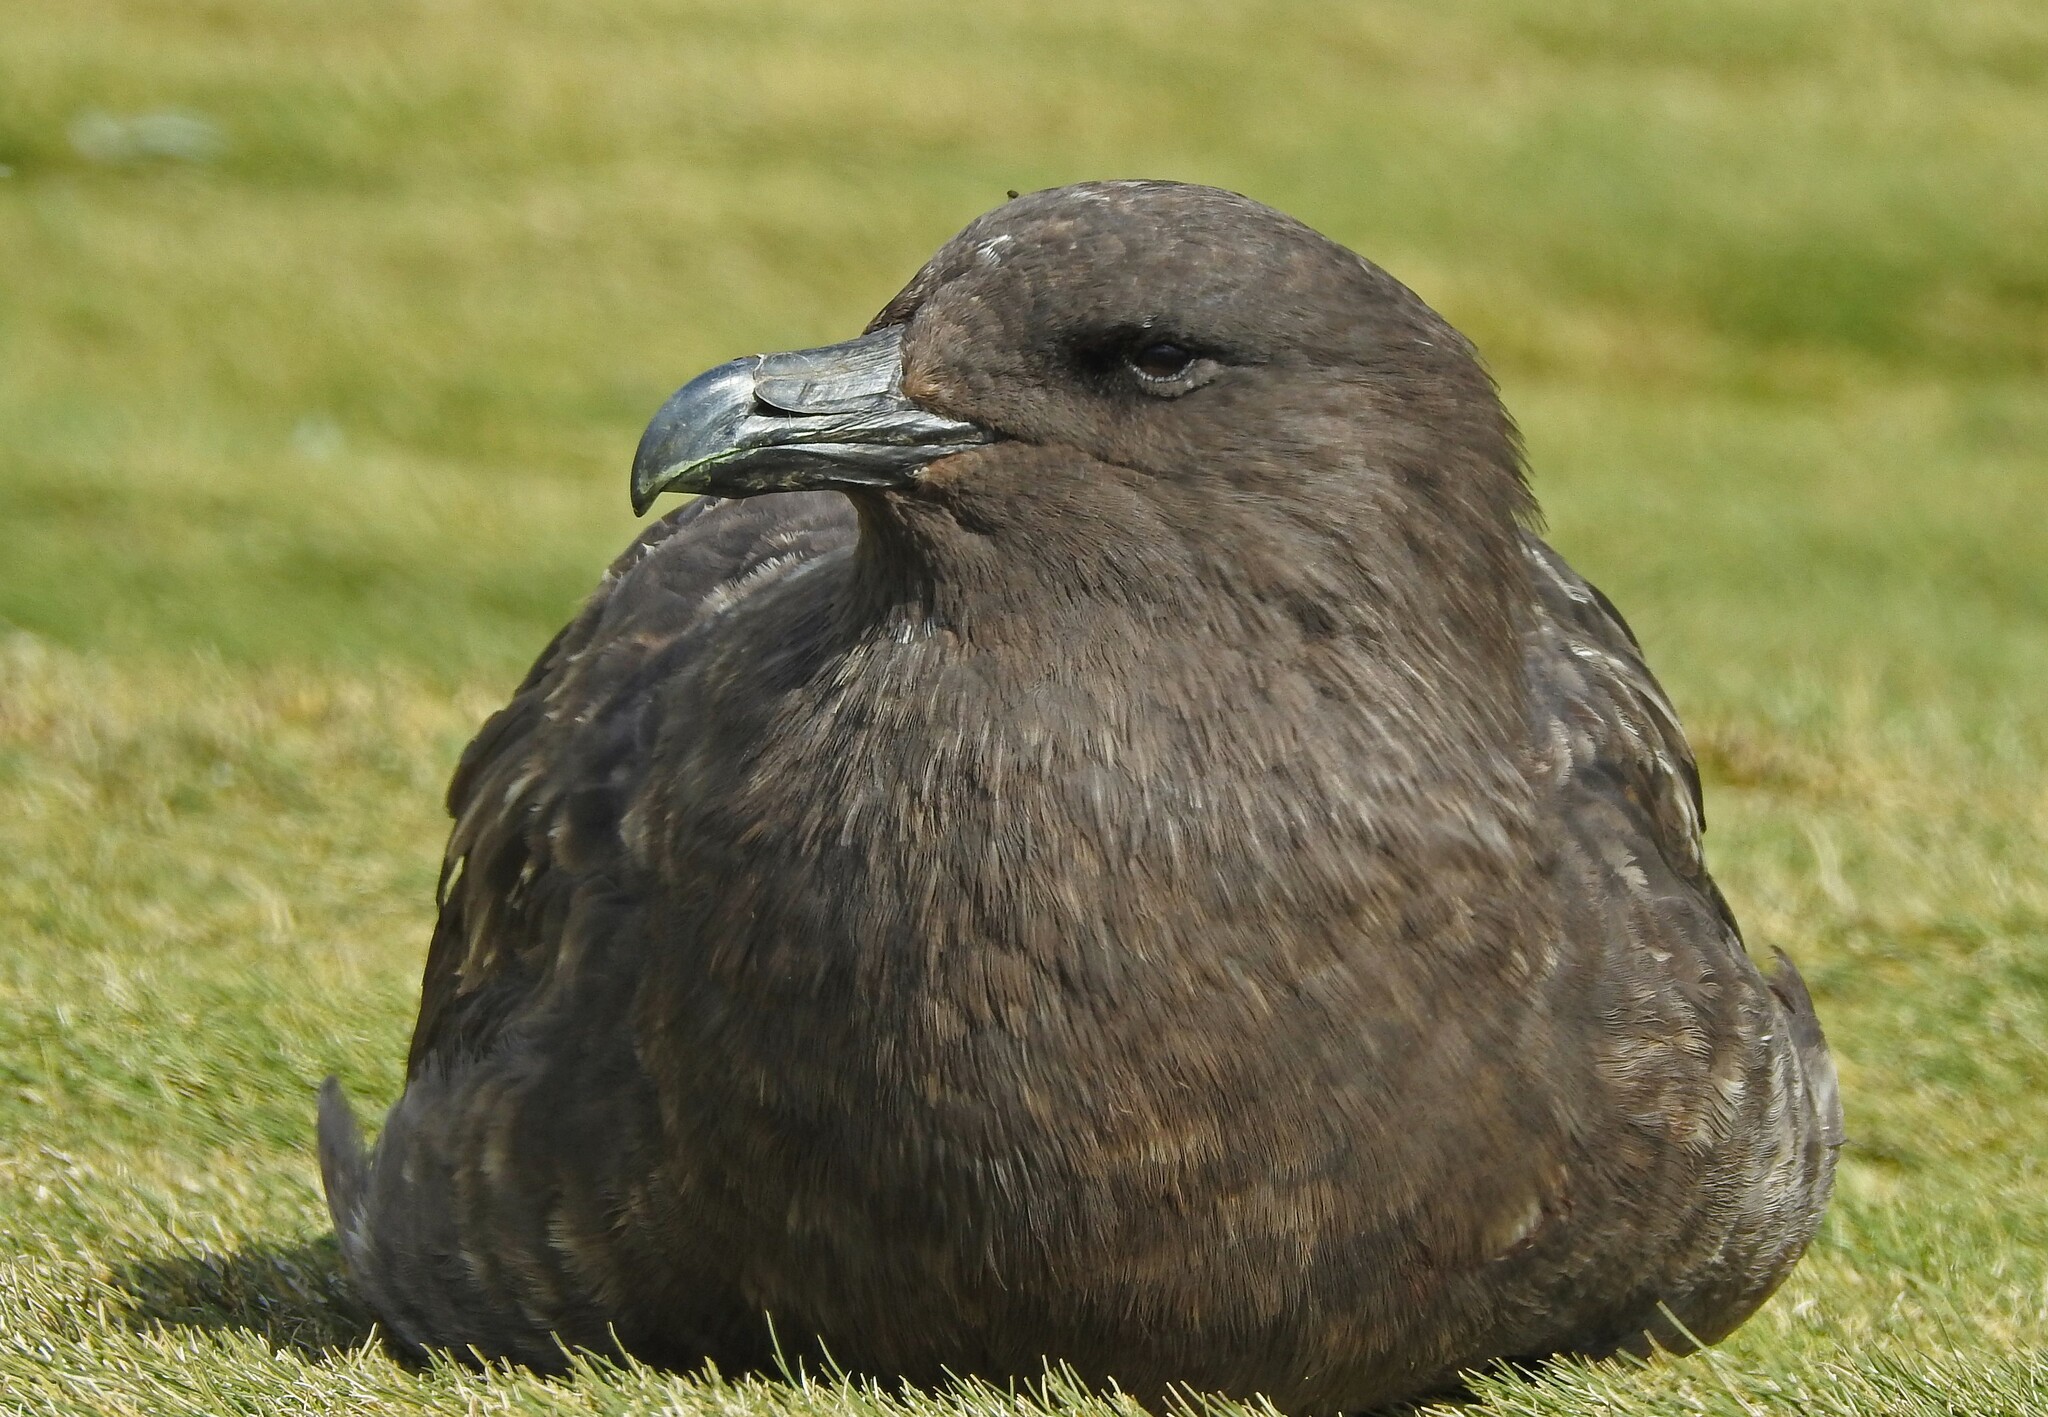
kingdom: Animalia
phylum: Chordata
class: Aves
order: Charadriiformes
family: Stercorariidae
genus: Stercorarius
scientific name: Stercorarius antarcticus
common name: Brown skua
